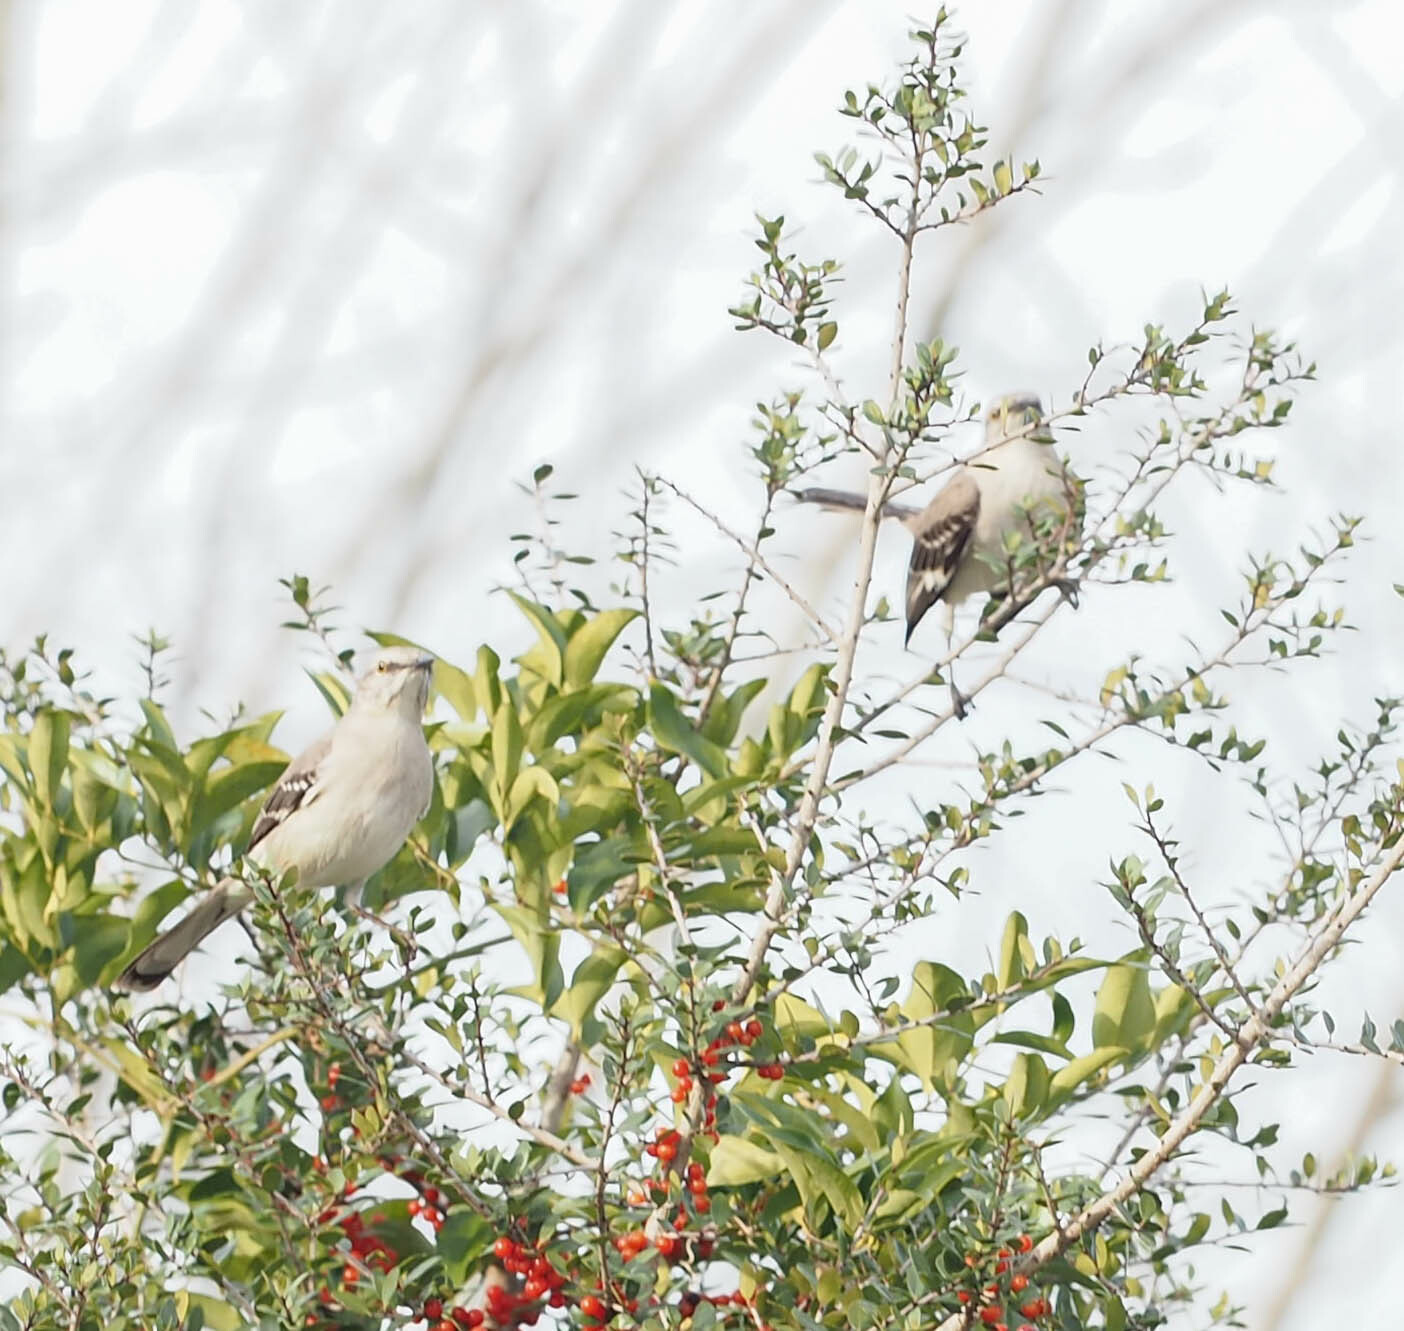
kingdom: Animalia
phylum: Chordata
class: Aves
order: Passeriformes
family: Mimidae
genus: Mimus
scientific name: Mimus polyglottos
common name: Northern mockingbird
